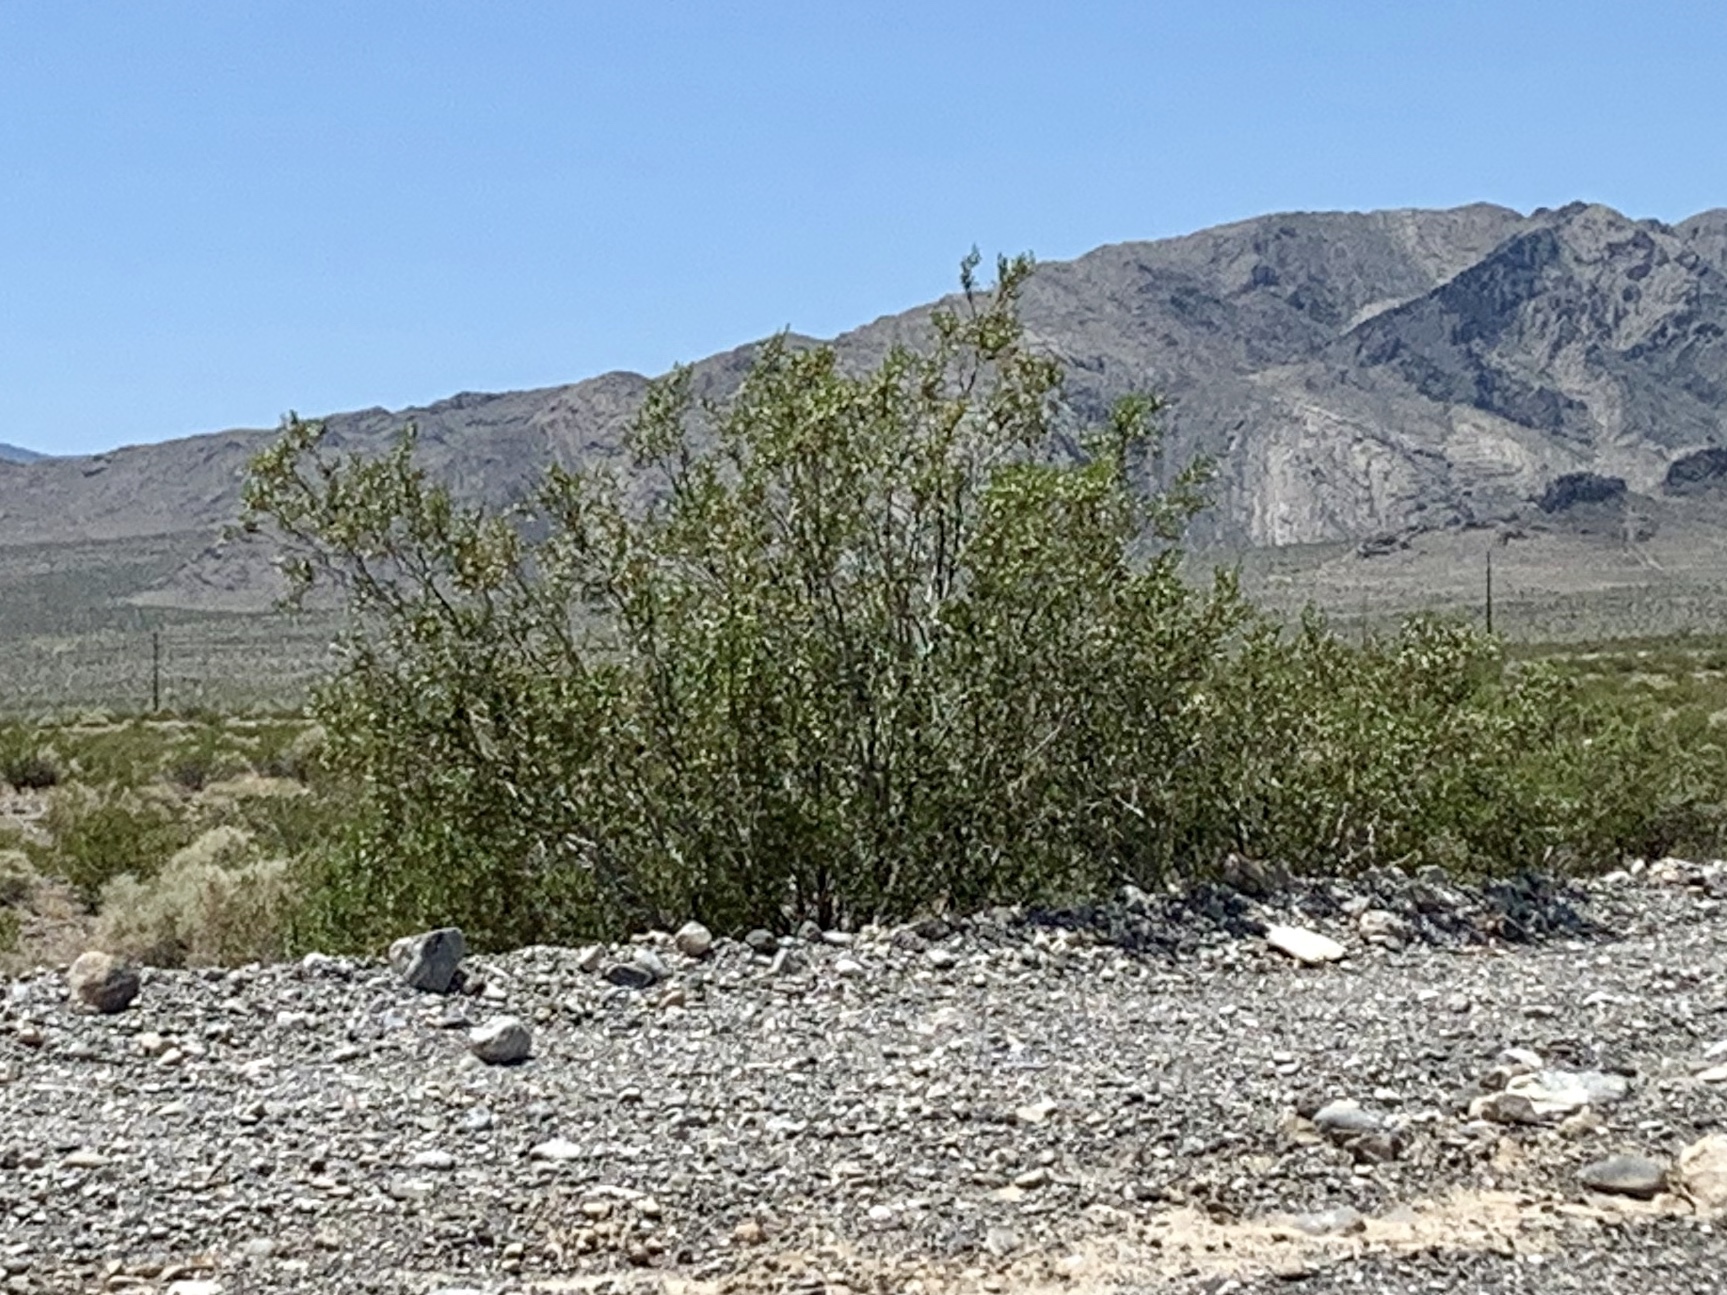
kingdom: Plantae
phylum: Tracheophyta
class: Magnoliopsida
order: Zygophyllales
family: Zygophyllaceae
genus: Larrea
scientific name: Larrea tridentata
